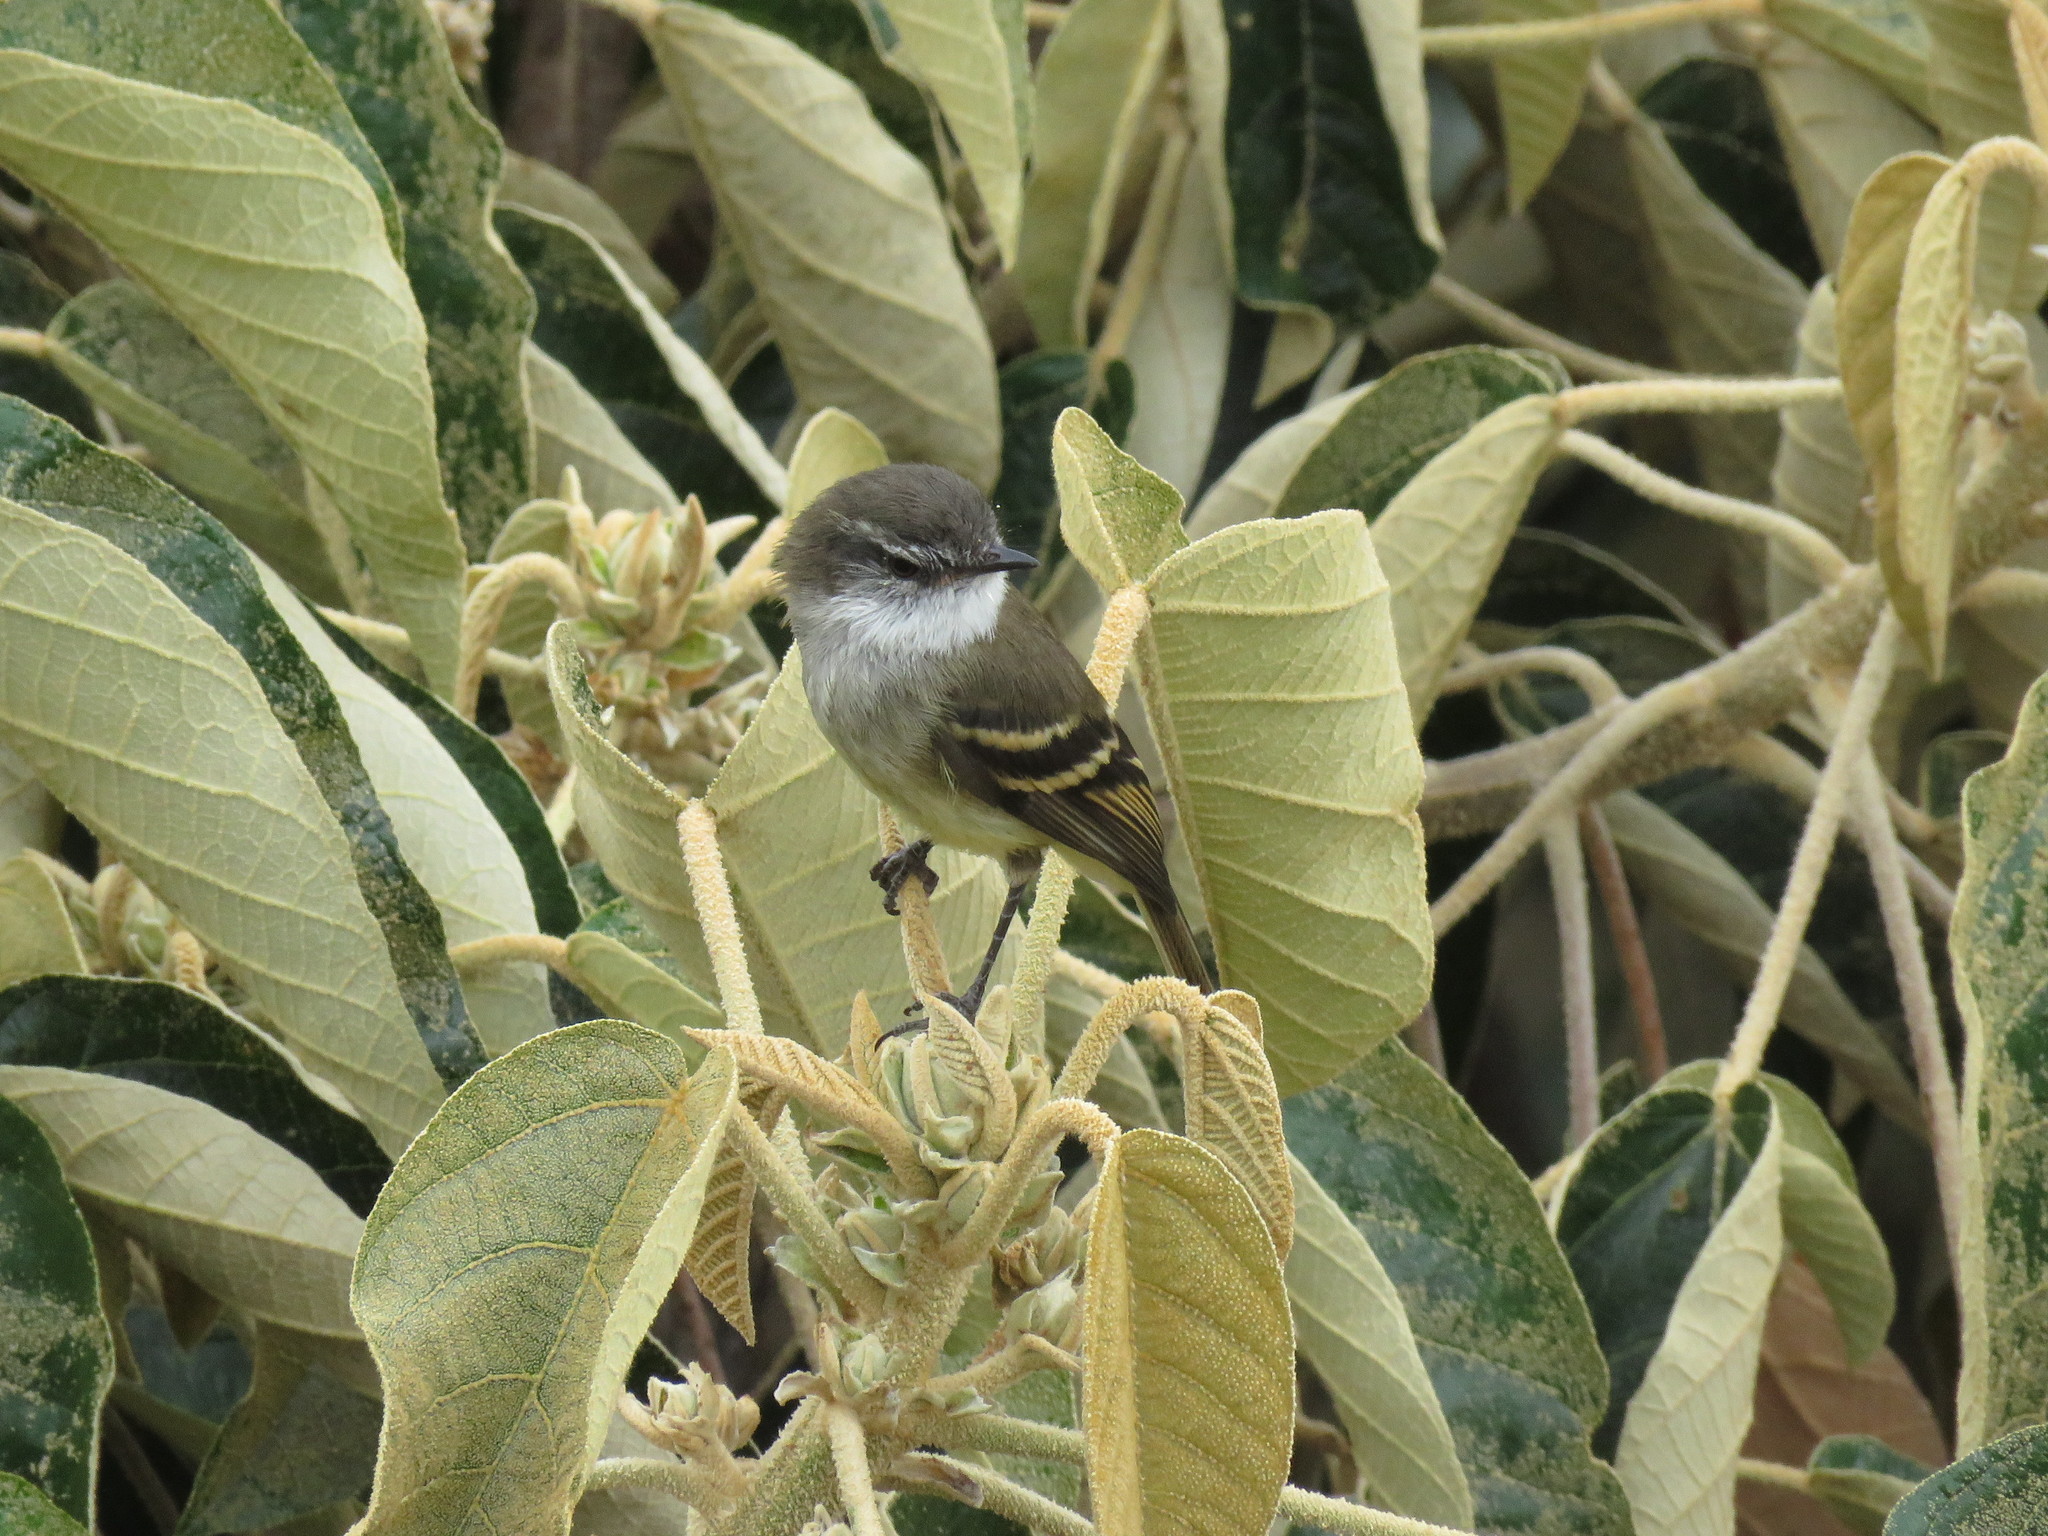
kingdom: Animalia
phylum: Chordata
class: Aves
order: Passeriformes
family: Tyrannidae
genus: Mecocerculus
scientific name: Mecocerculus leucophrys
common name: White-throated tyrannulet
